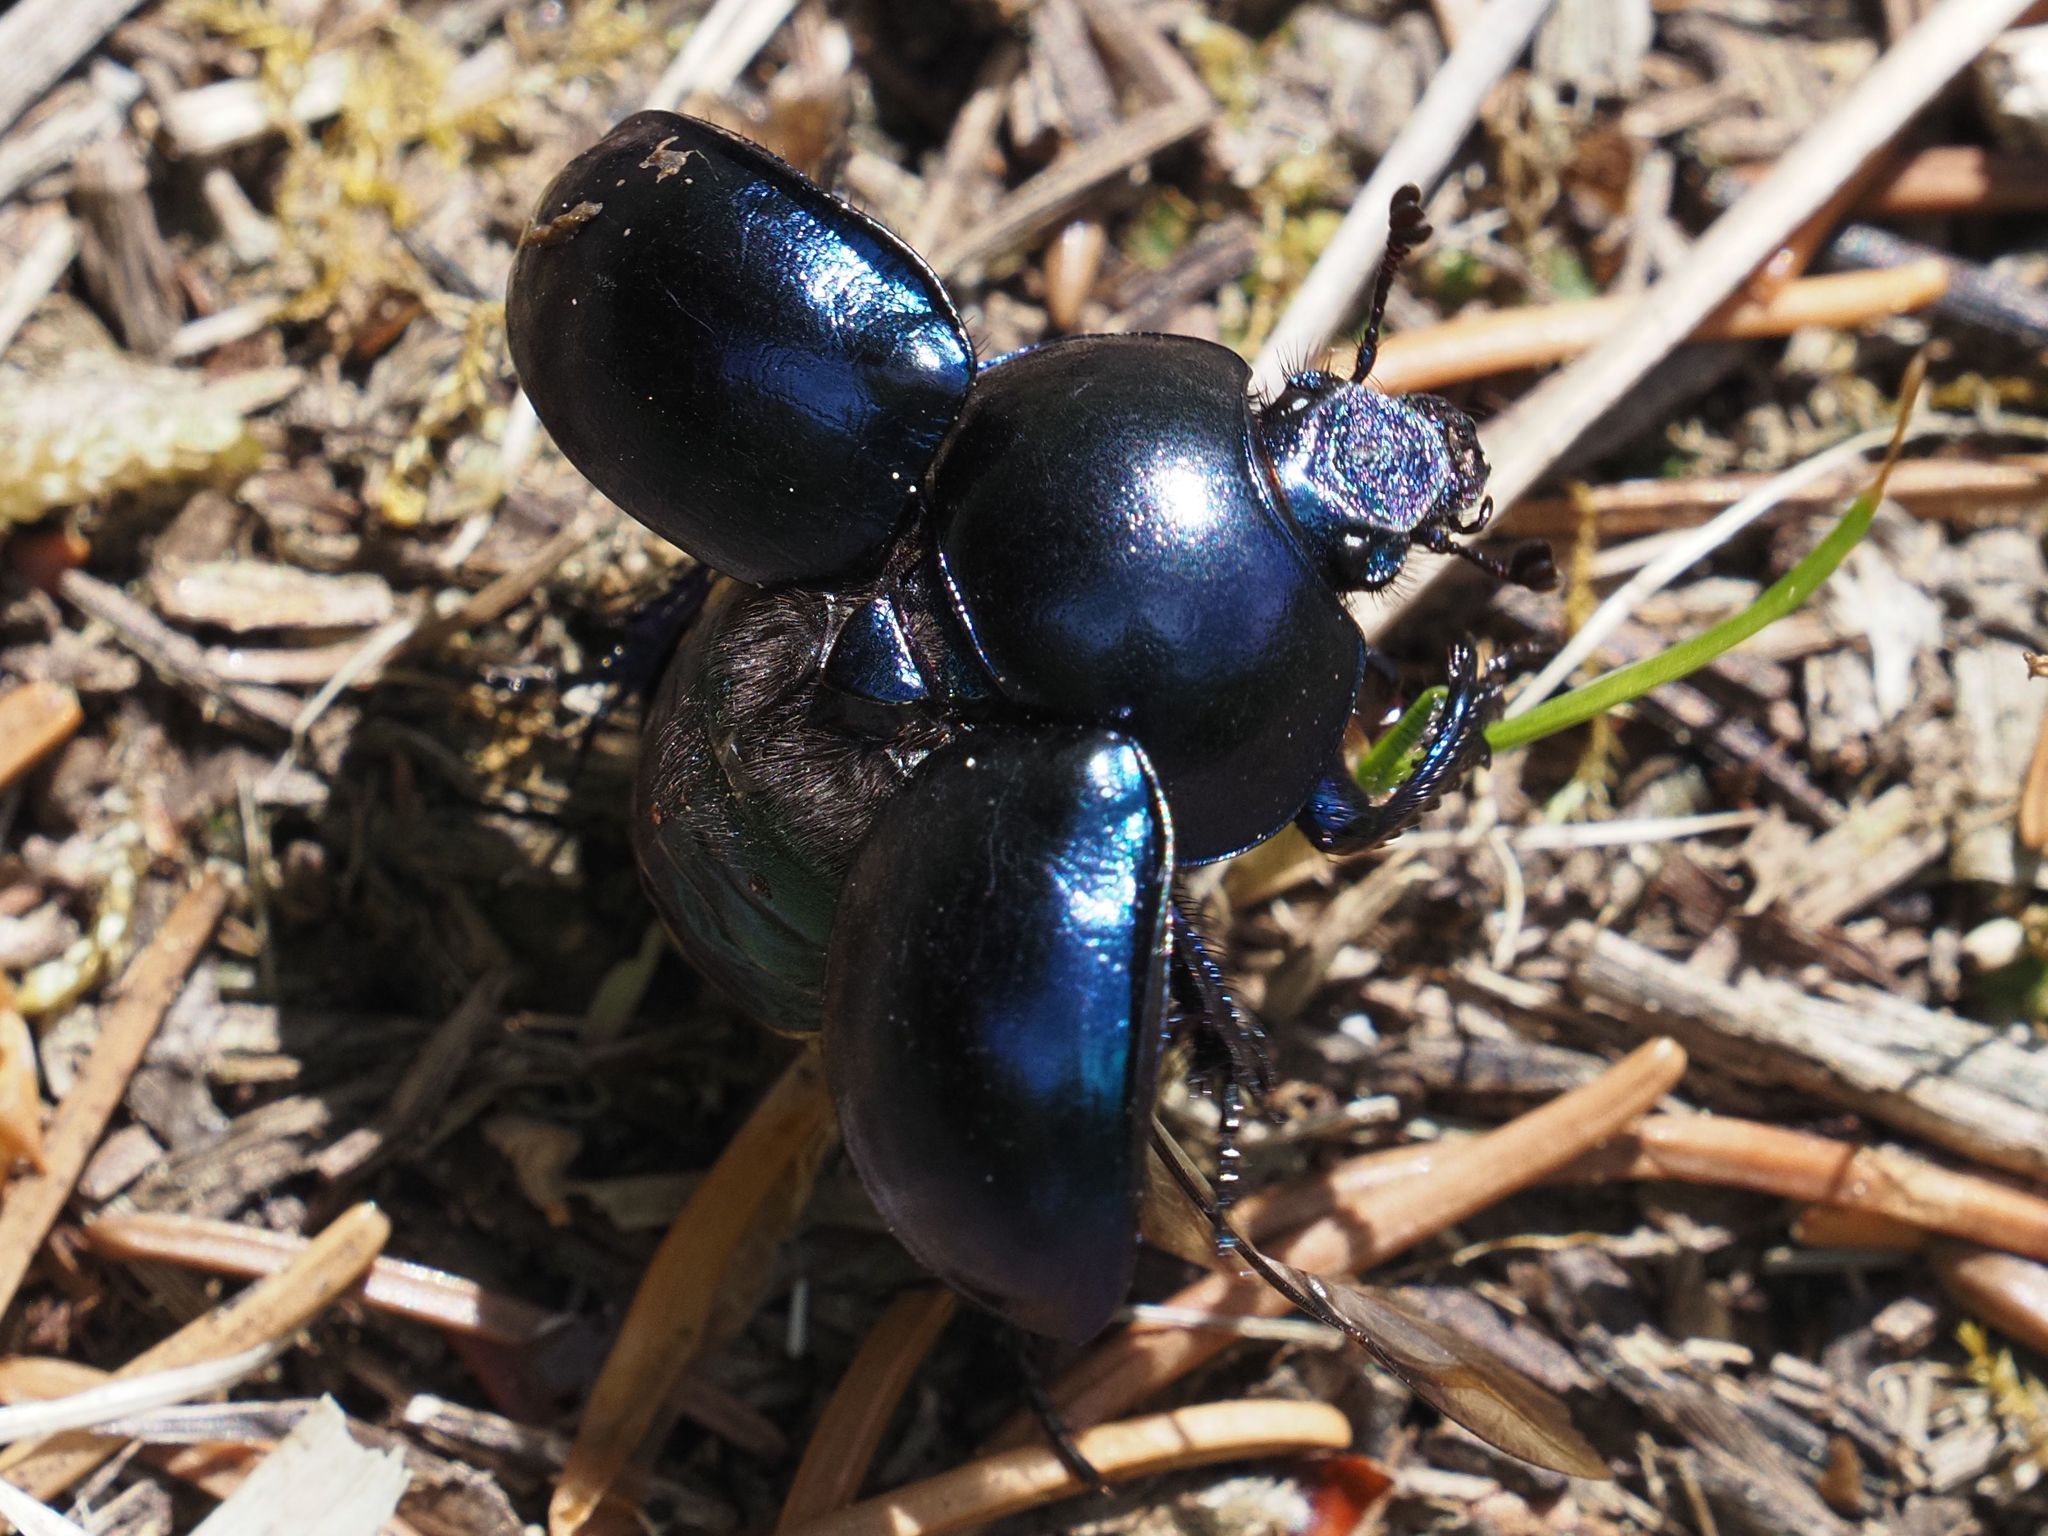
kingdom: Animalia
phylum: Arthropoda
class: Insecta
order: Coleoptera
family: Geotrupidae
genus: Trypocopris
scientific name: Trypocopris vernalis
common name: Spring dumbledor
